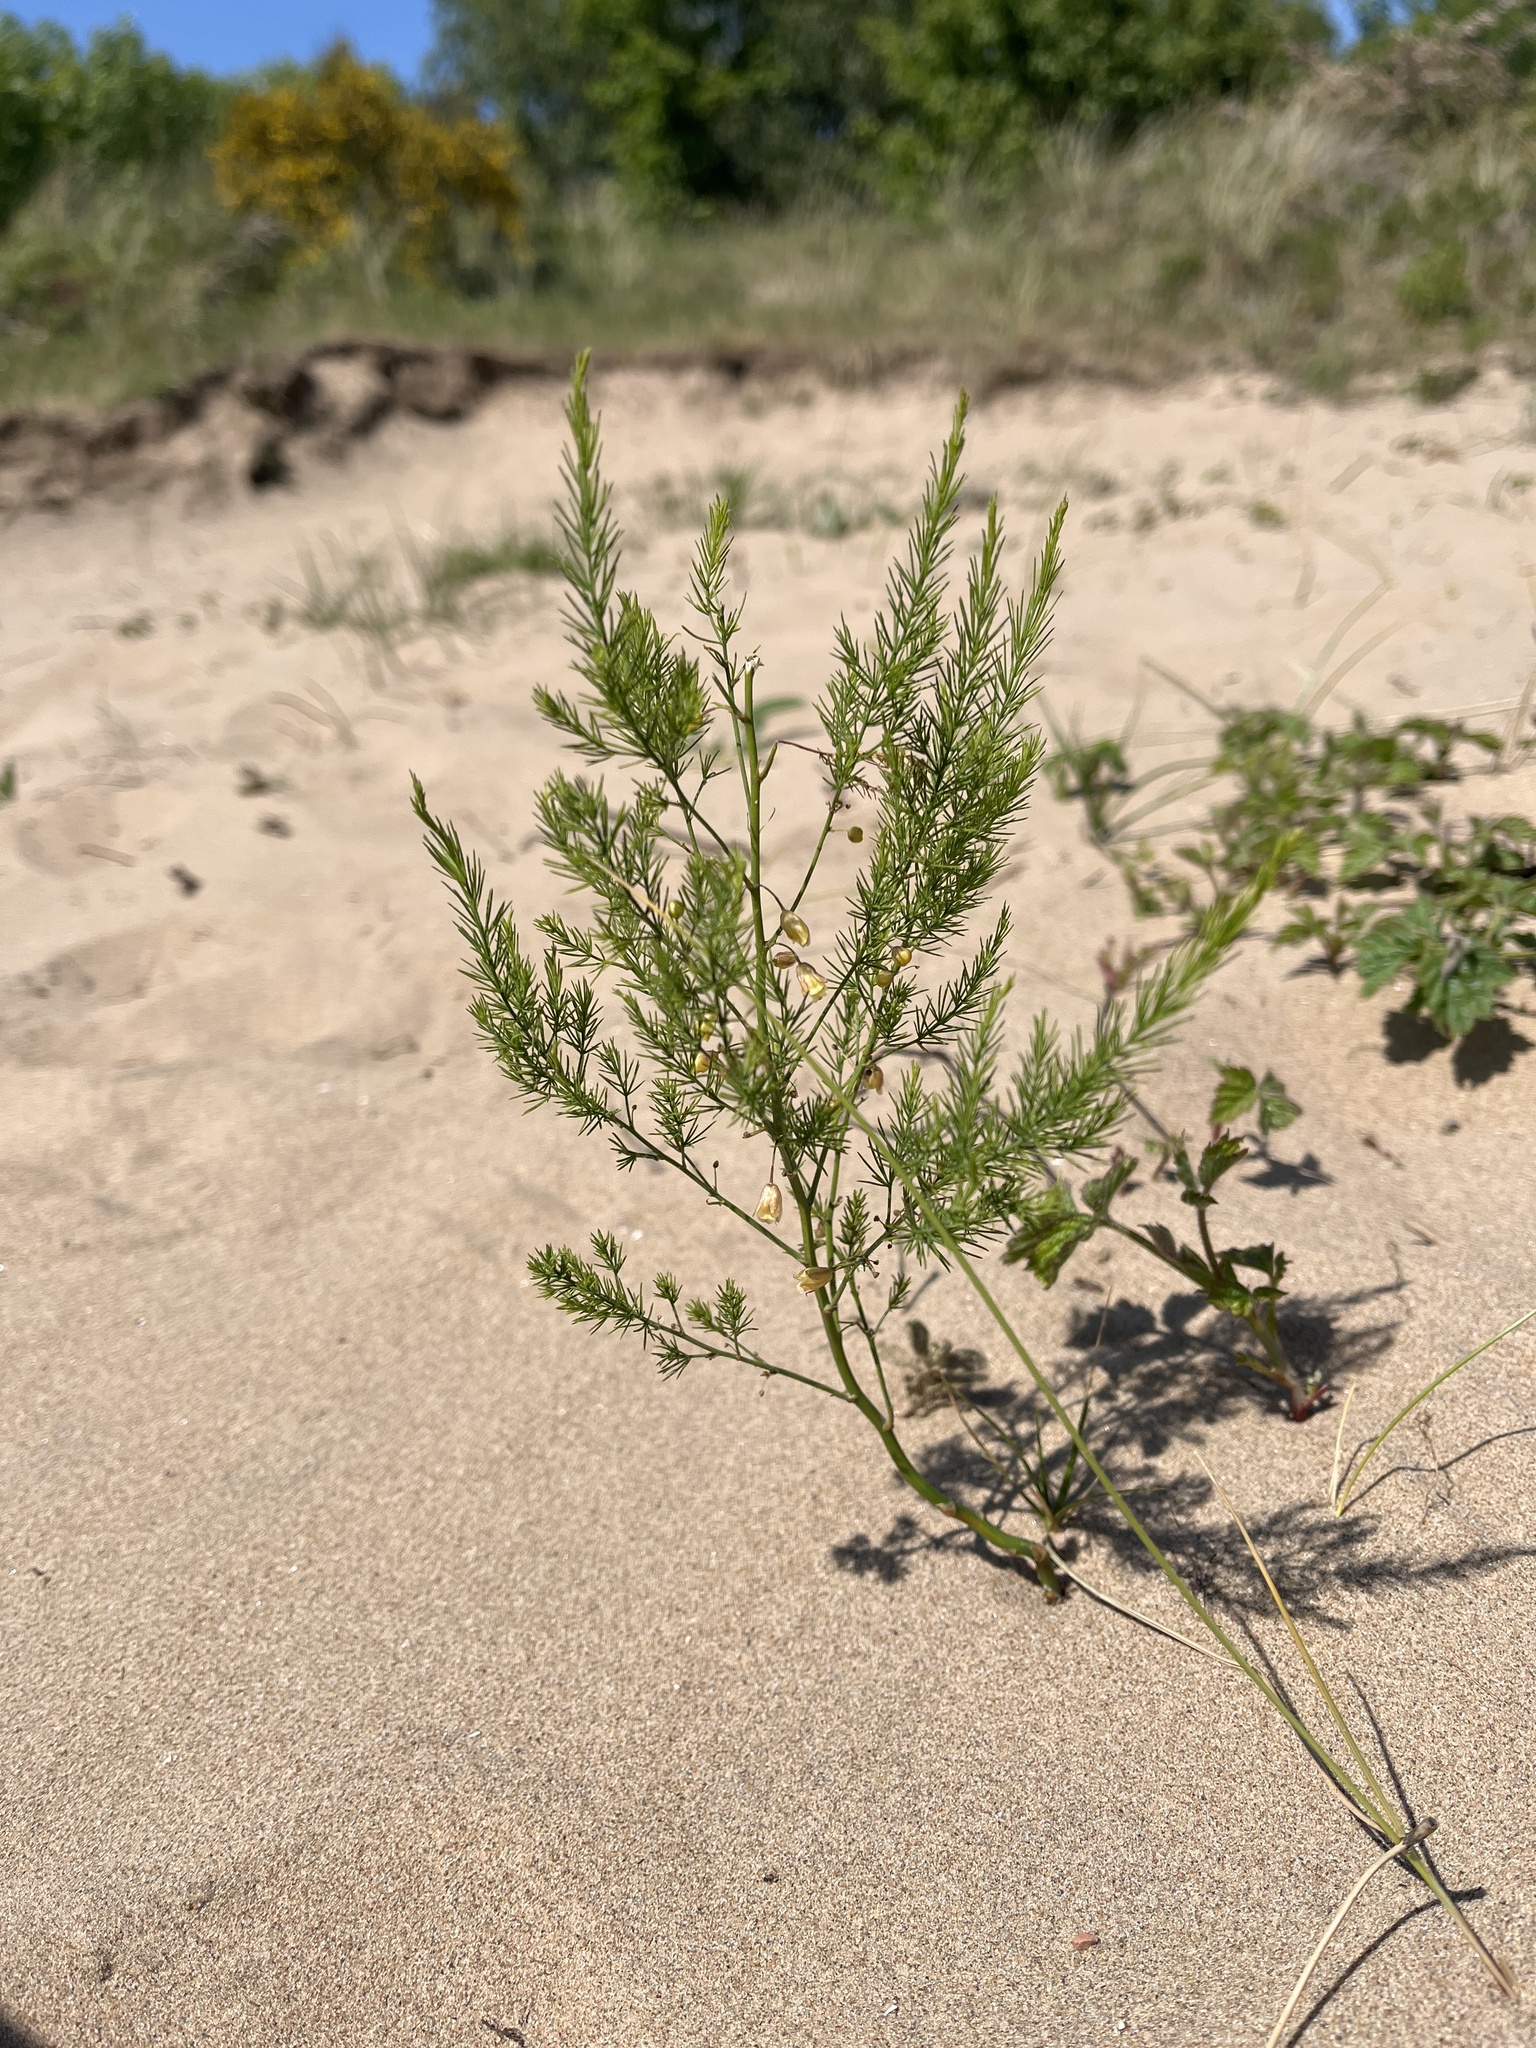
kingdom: Plantae
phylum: Tracheophyta
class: Liliopsida
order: Asparagales
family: Asparagaceae
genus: Asparagus
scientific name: Asparagus officinalis
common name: Garden asparagus
